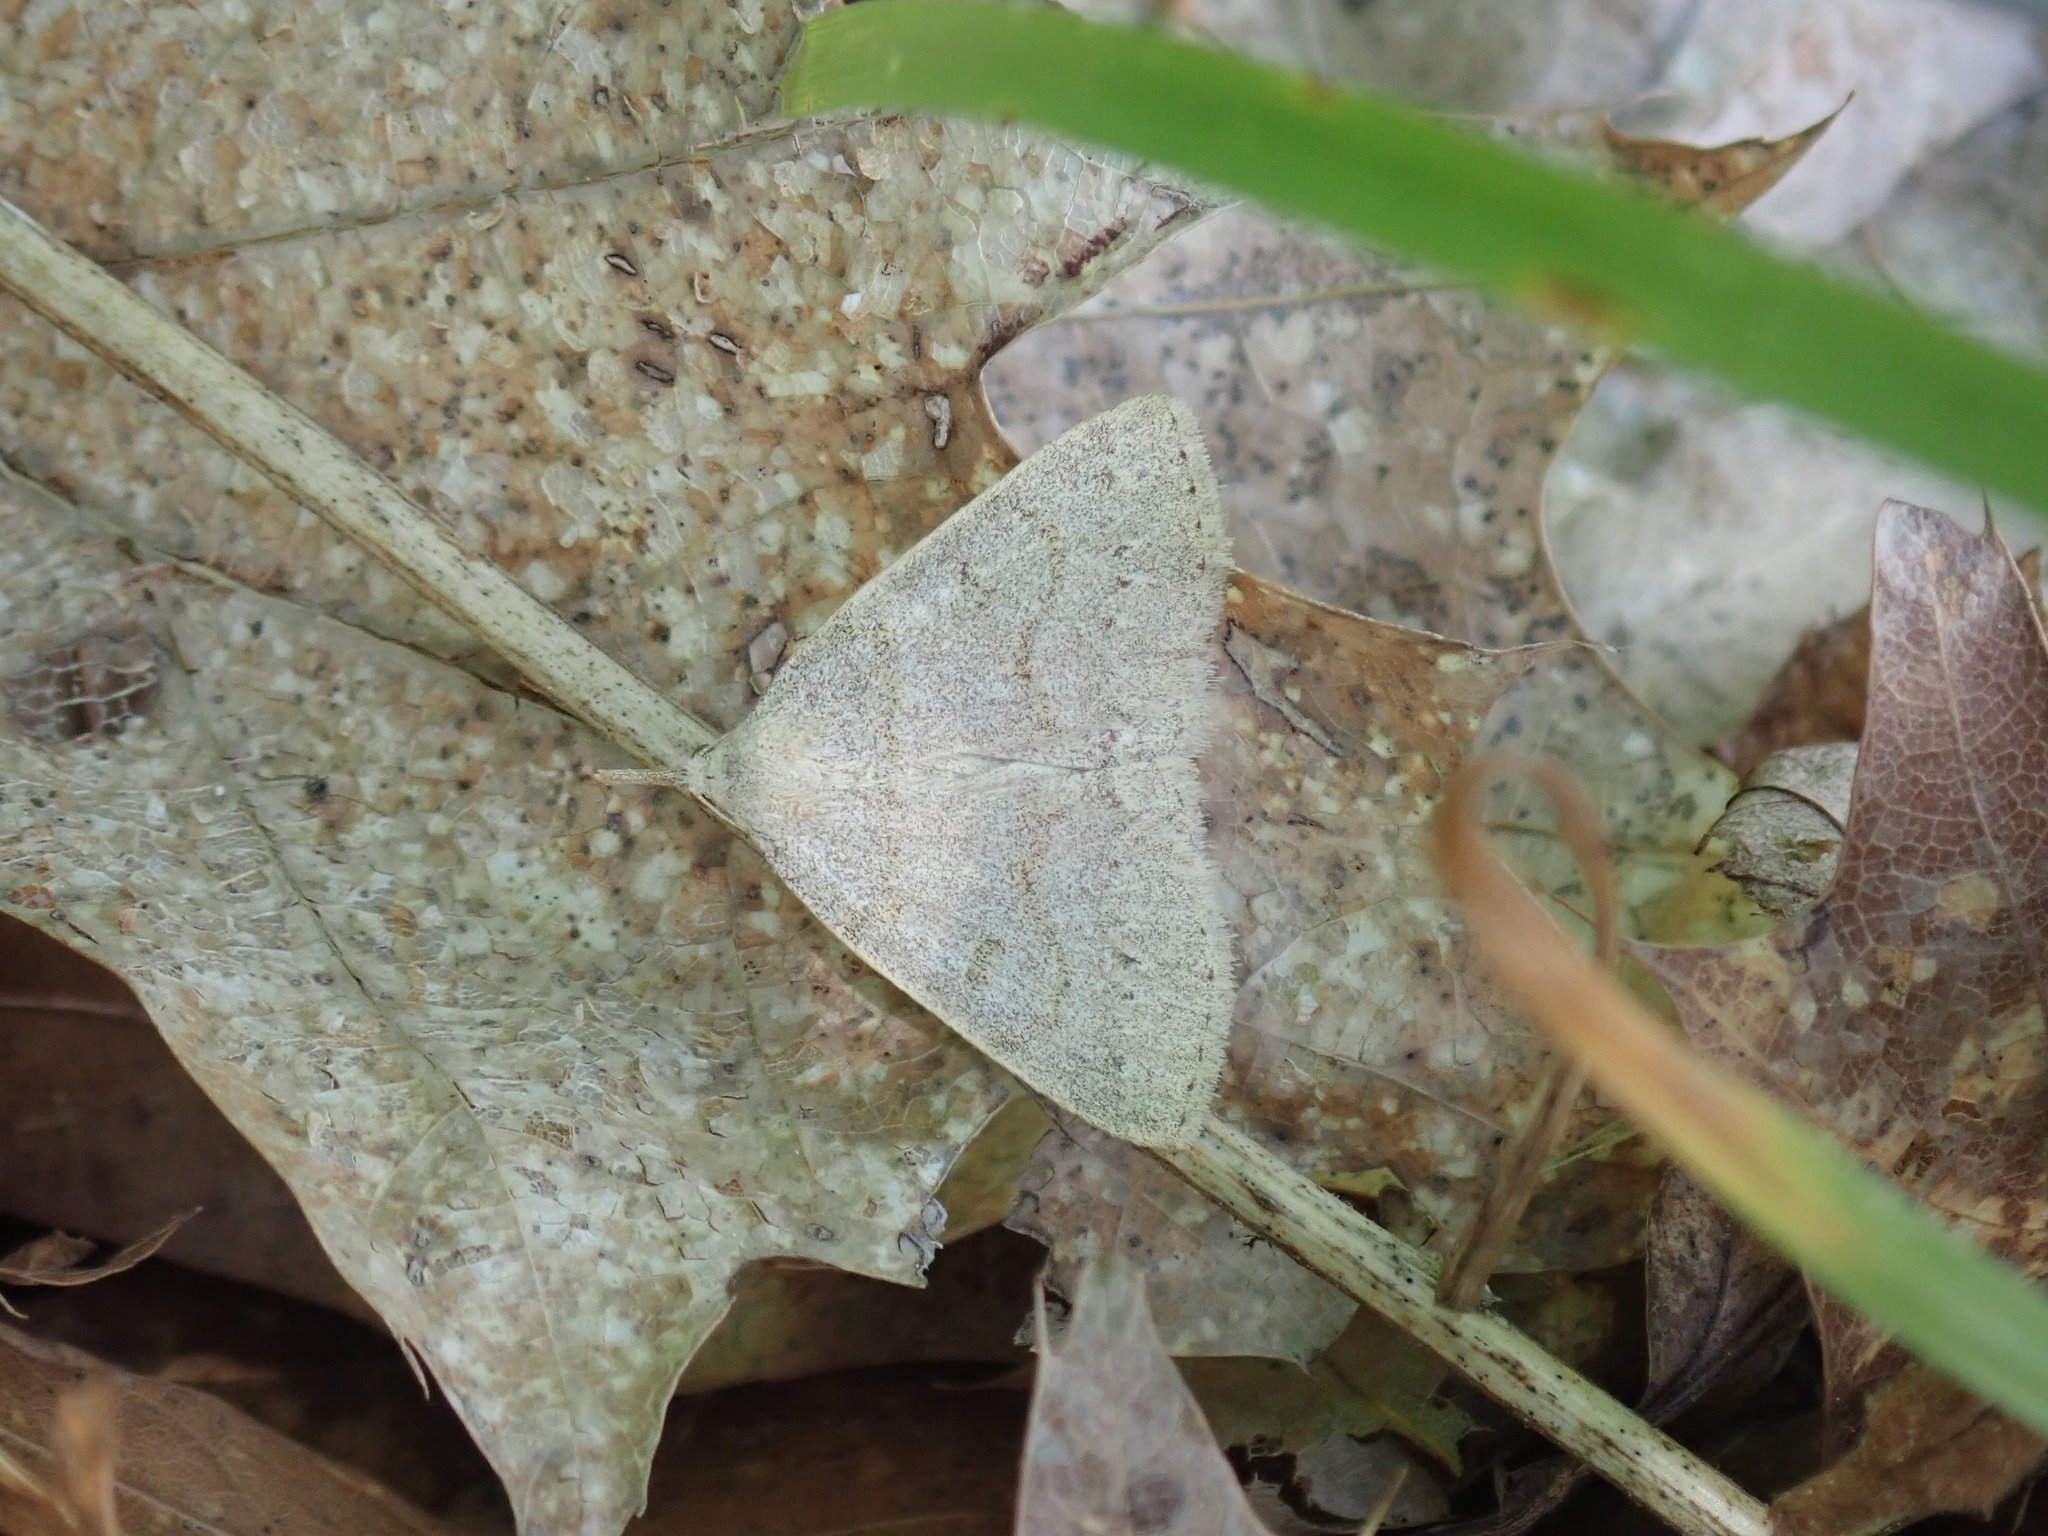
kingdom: Animalia
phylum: Arthropoda
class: Insecta
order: Lepidoptera
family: Erebidae
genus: Macrochilo
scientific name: Macrochilo morbidalis
